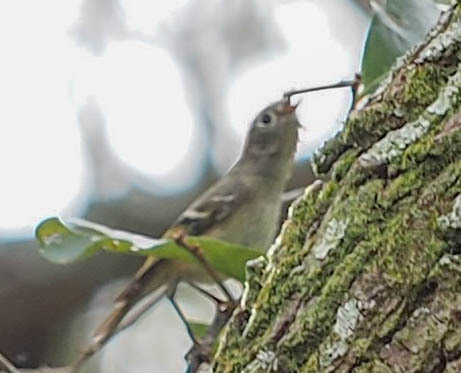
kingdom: Animalia
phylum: Chordata
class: Aves
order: Passeriformes
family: Regulidae
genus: Regulus
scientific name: Regulus calendula
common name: Ruby-crowned kinglet
